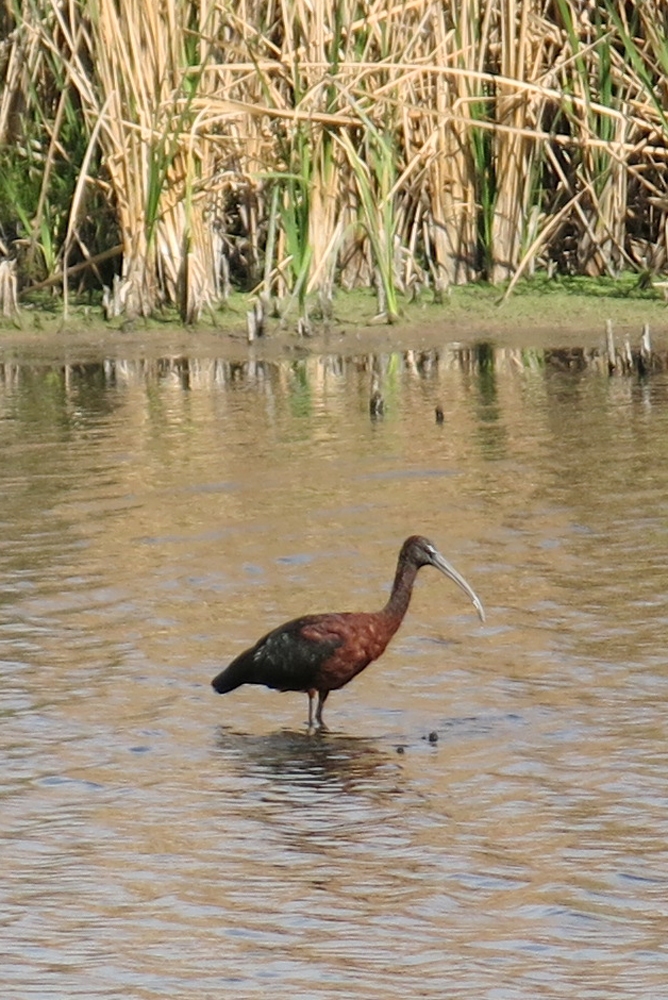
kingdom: Animalia
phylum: Chordata
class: Aves
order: Pelecaniformes
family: Threskiornithidae
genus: Plegadis
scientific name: Plegadis falcinellus
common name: Glossy ibis
